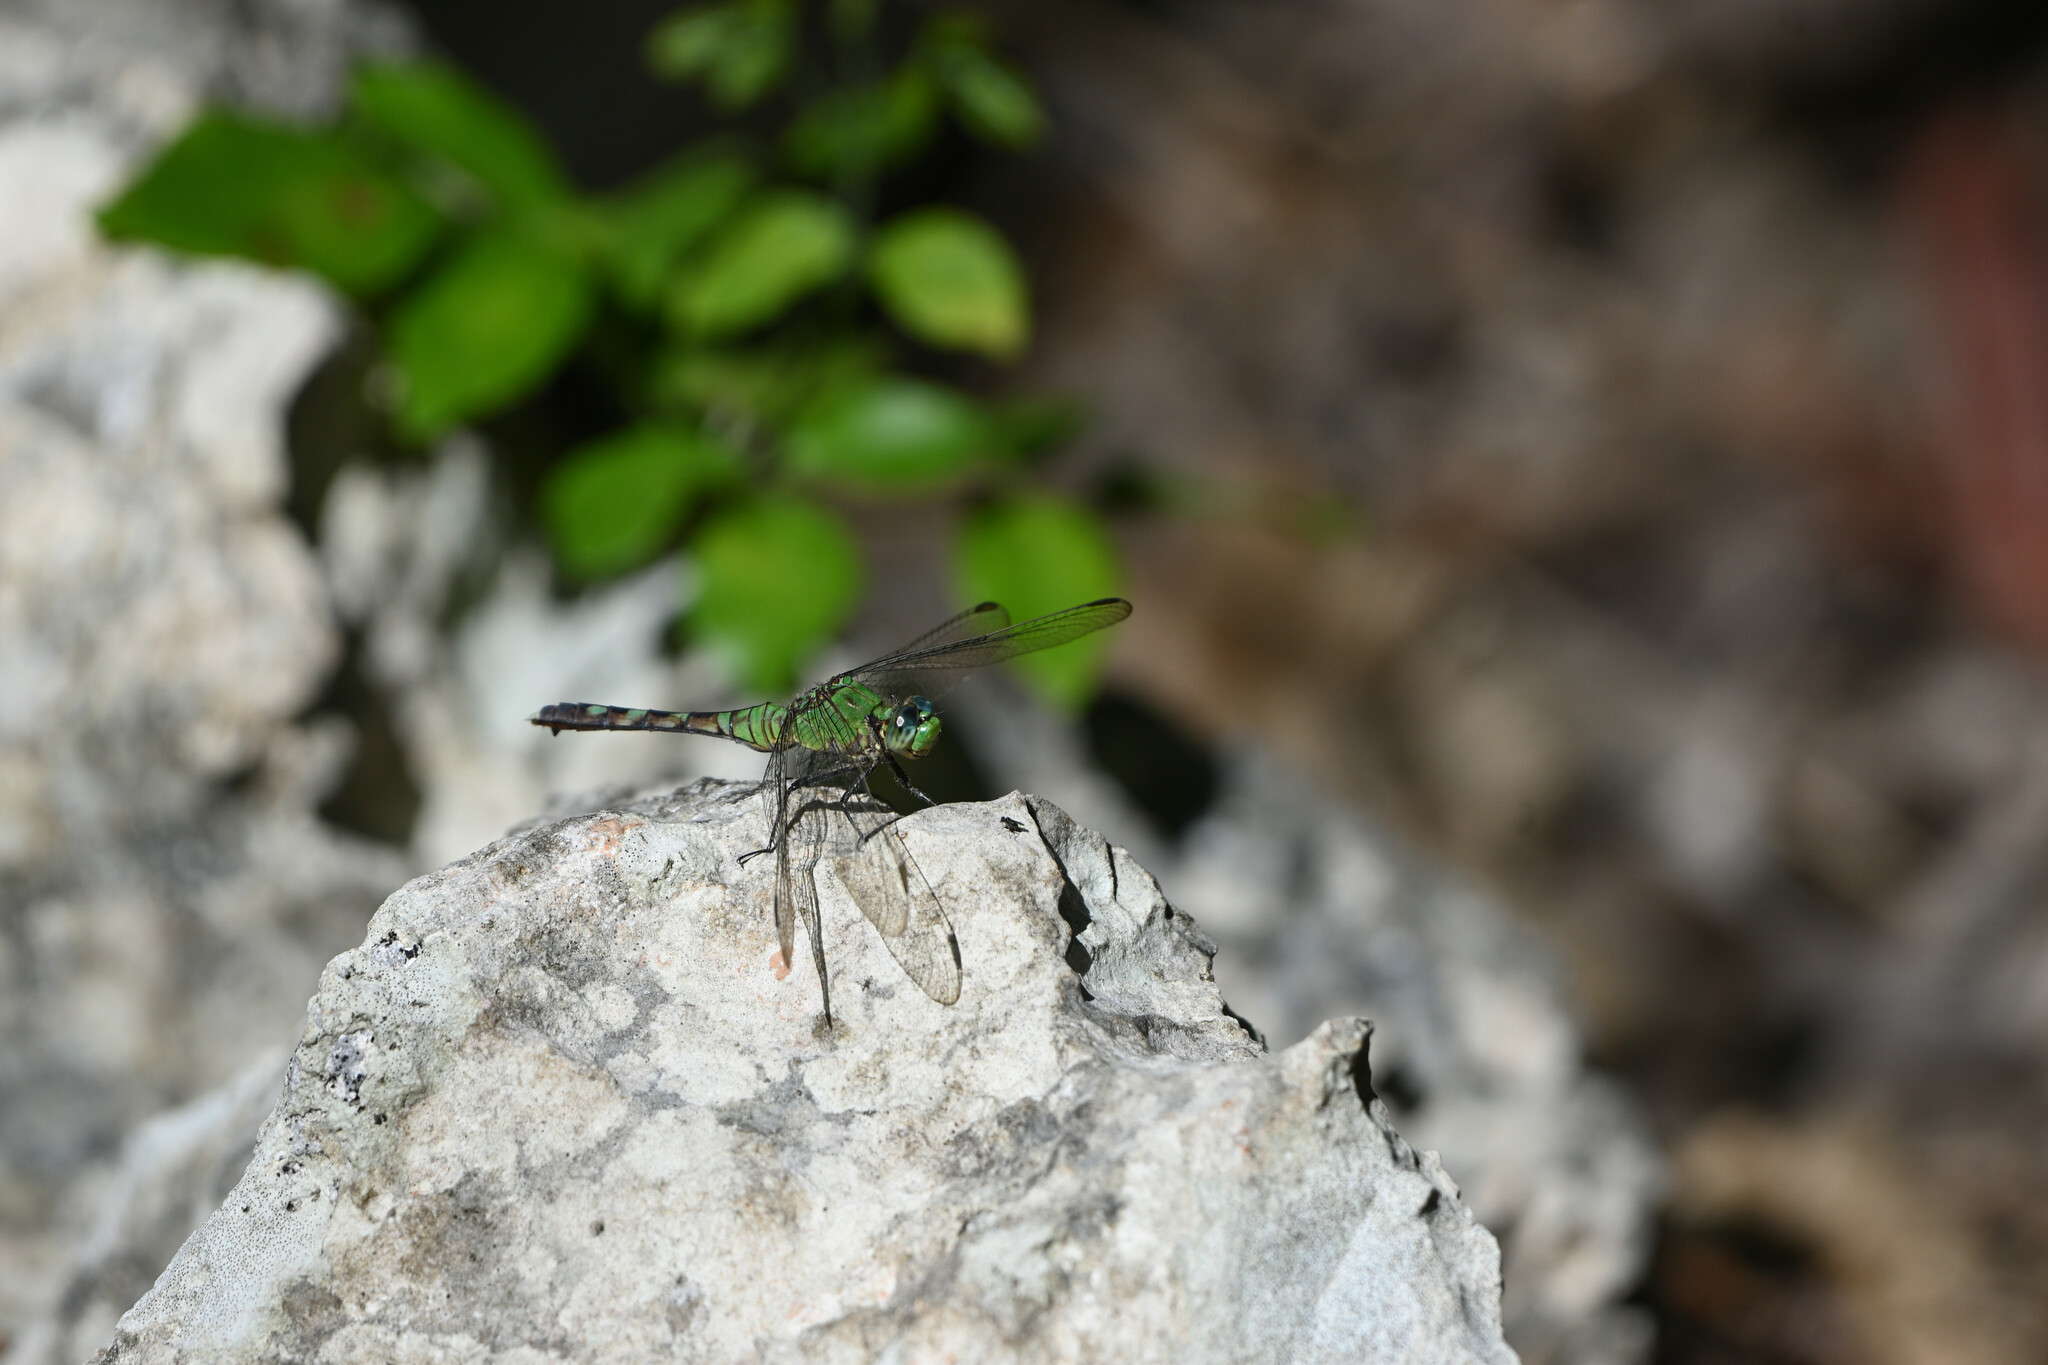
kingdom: Animalia
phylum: Arthropoda
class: Insecta
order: Odonata
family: Libellulidae
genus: Erythemis
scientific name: Erythemis simplicicollis
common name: Eastern pondhawk
